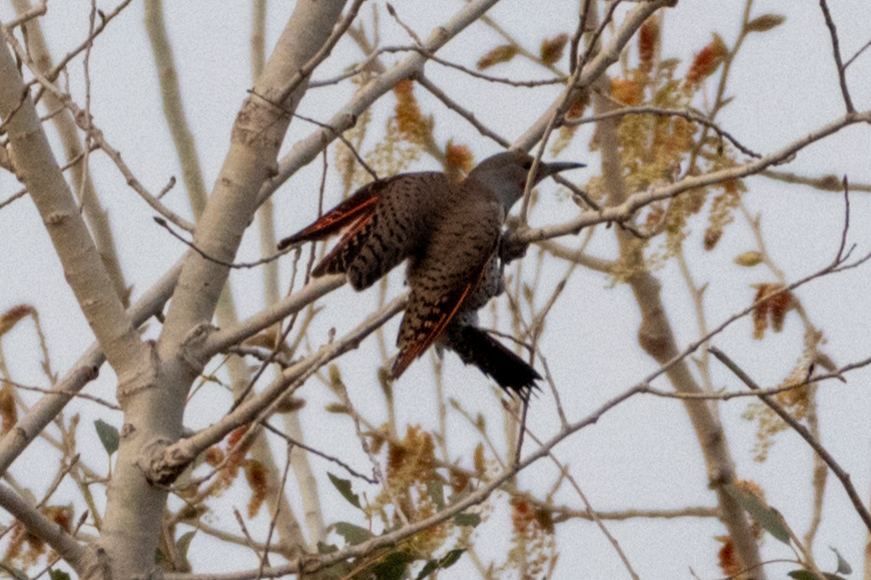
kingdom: Animalia
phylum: Chordata
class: Aves
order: Piciformes
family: Picidae
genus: Colaptes
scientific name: Colaptes auratus
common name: Northern flicker
